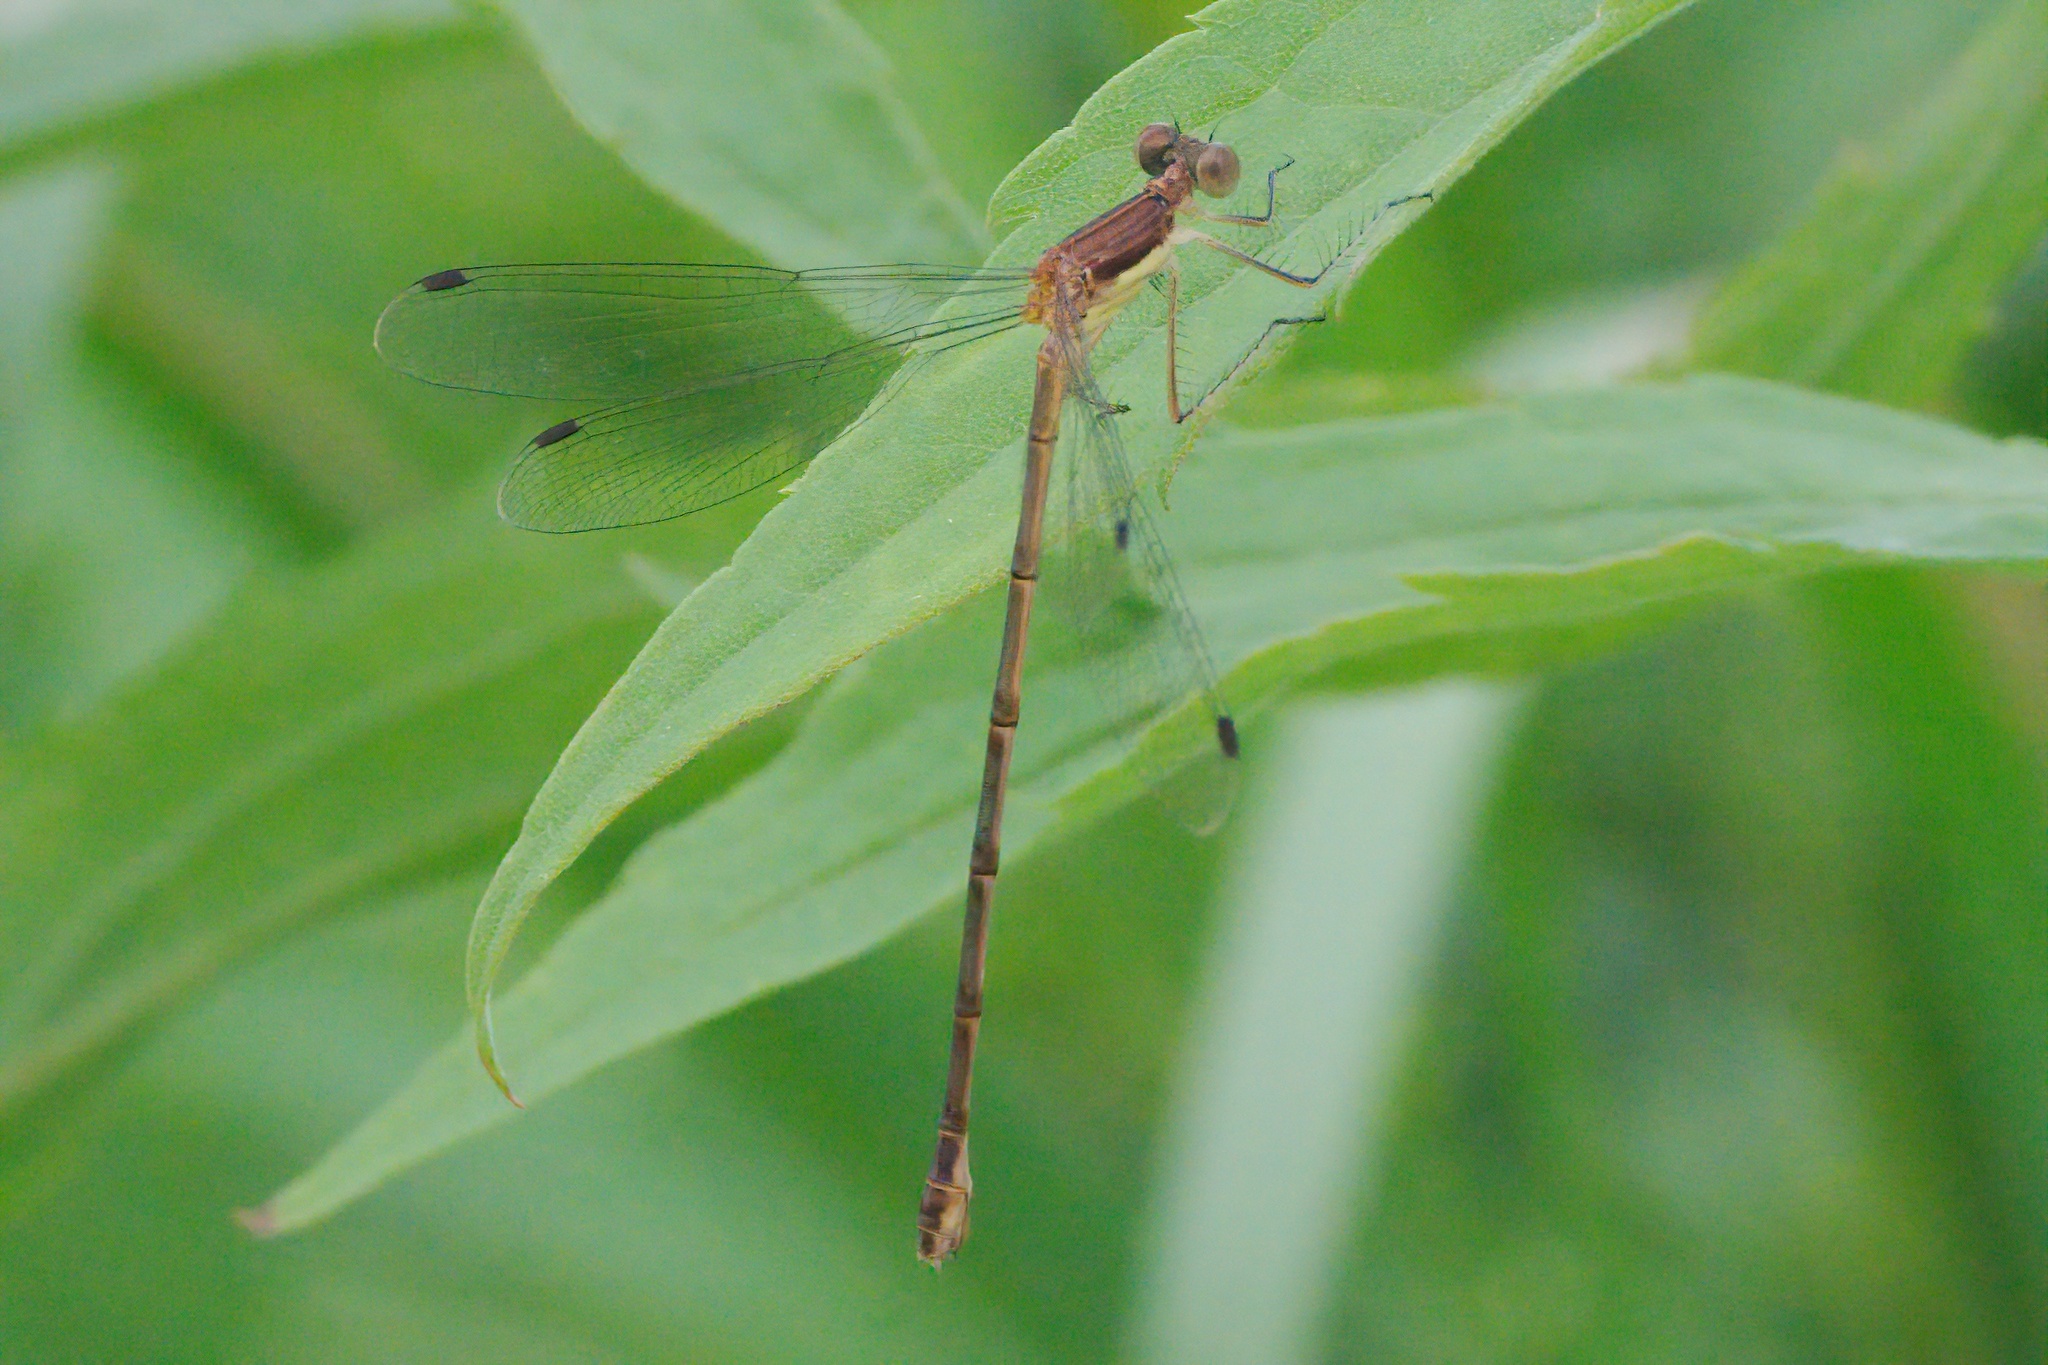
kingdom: Animalia
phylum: Arthropoda
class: Insecta
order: Odonata
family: Lestidae
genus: Lestes
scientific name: Lestes rectangularis
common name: Slender spreadwing
